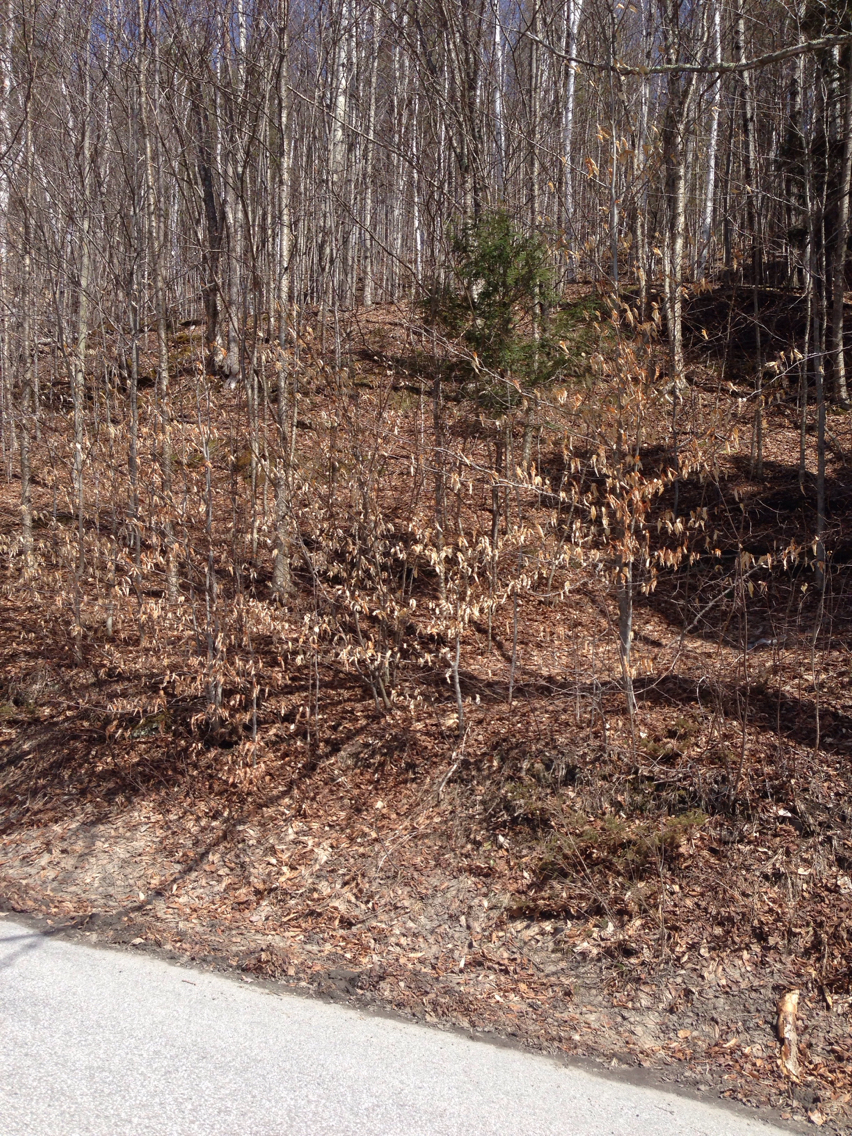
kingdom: Plantae
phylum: Tracheophyta
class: Magnoliopsida
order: Fagales
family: Fagaceae
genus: Fagus
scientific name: Fagus grandifolia
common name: American beech
